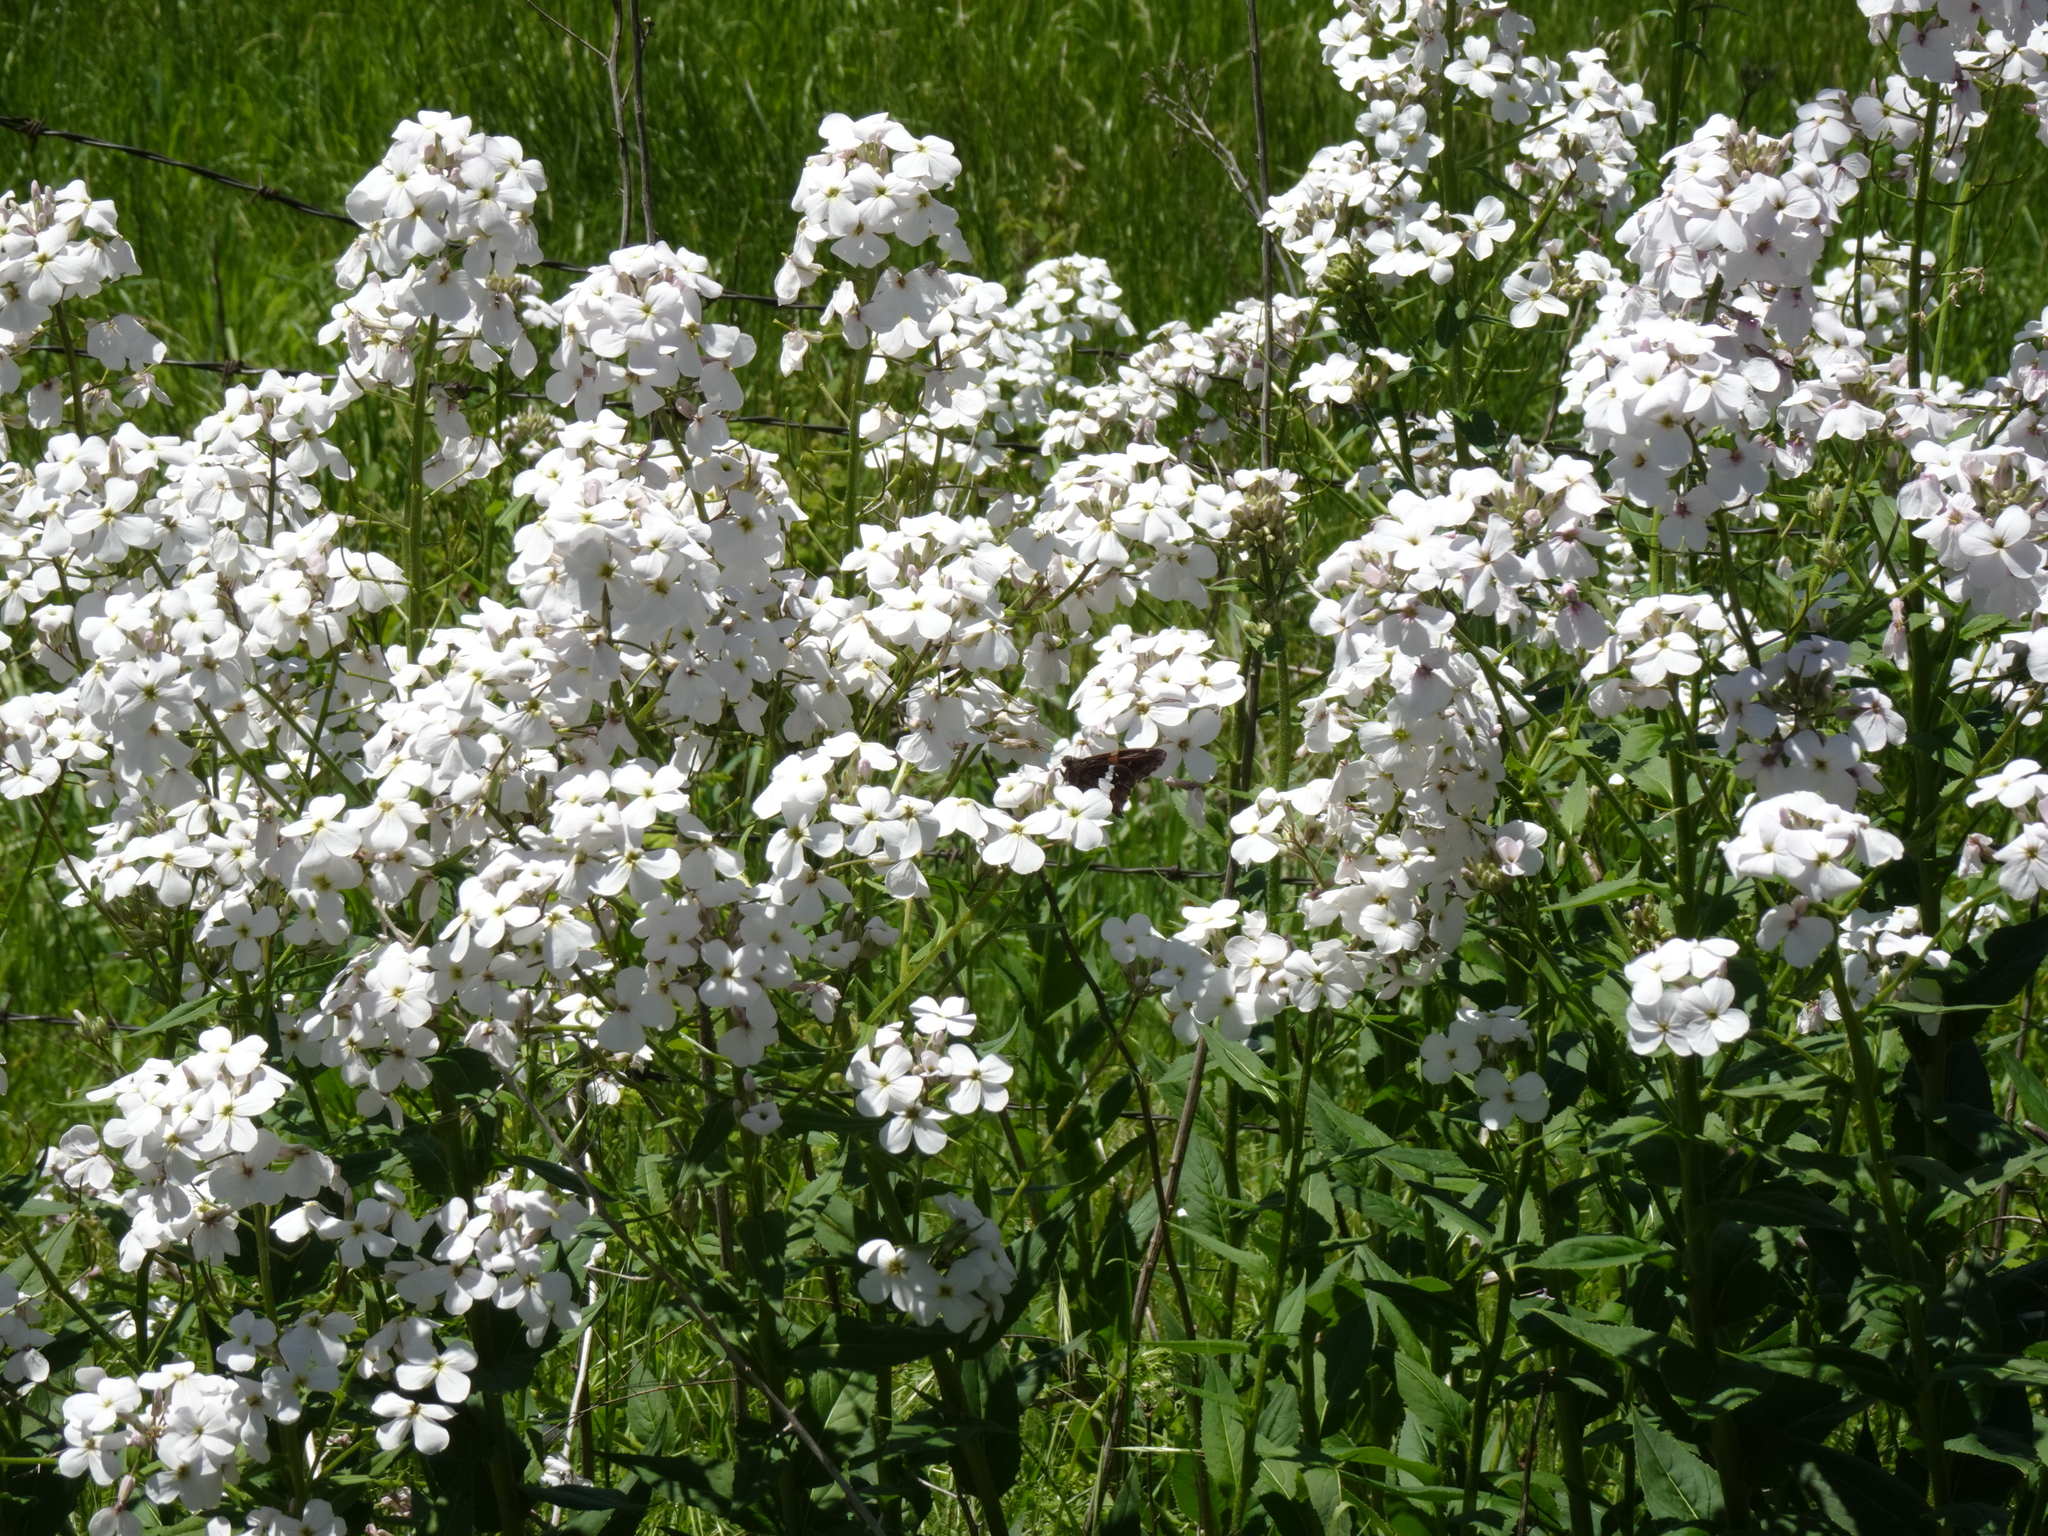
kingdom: Plantae
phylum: Tracheophyta
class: Magnoliopsida
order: Brassicales
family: Brassicaceae
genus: Hesperis
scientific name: Hesperis matronalis
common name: Dame's-violet
